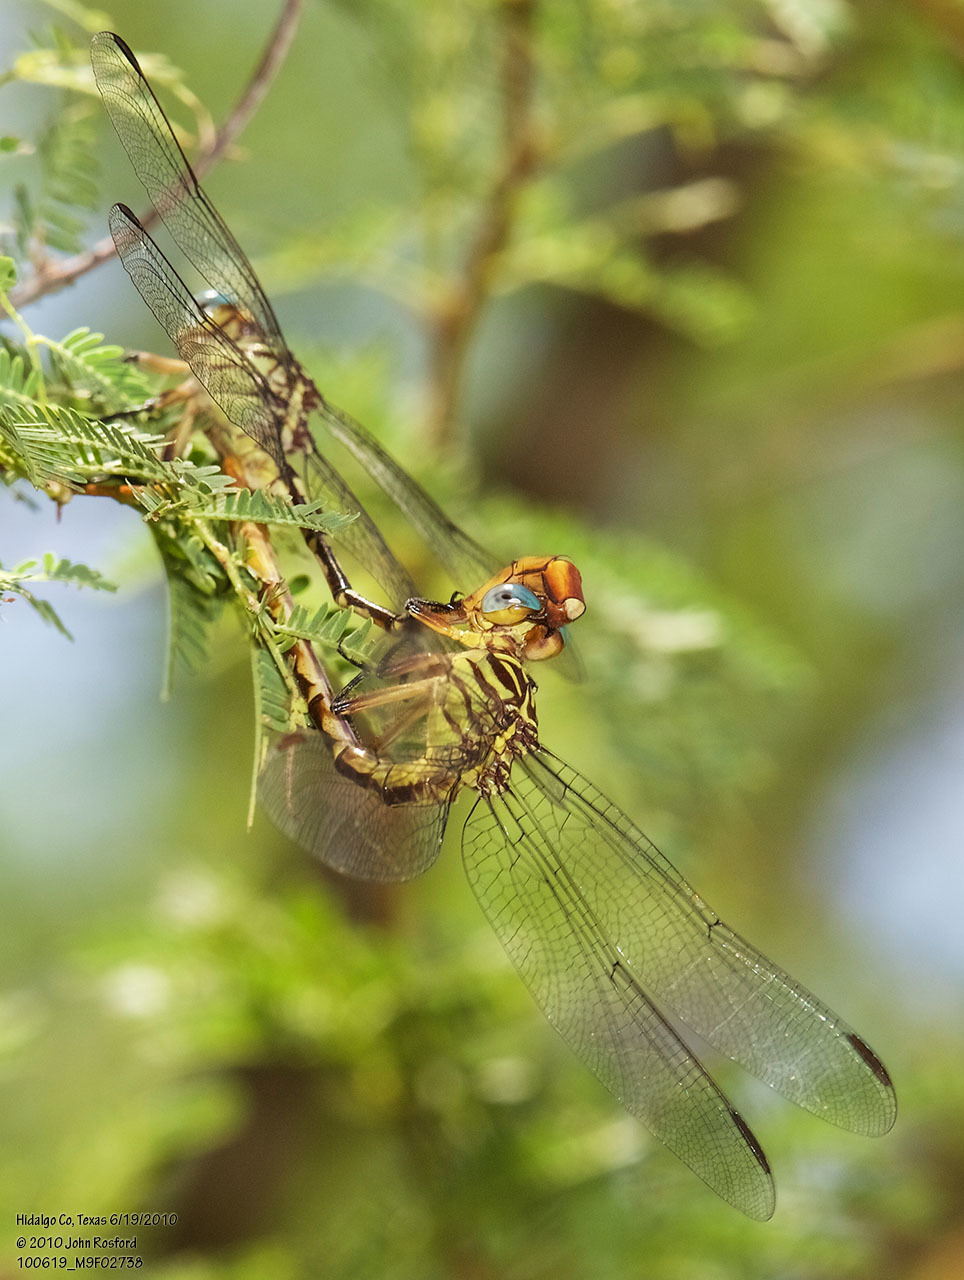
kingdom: Animalia
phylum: Arthropoda
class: Insecta
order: Odonata
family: Gomphidae
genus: Stylurus
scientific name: Stylurus plagiatus
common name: Russet-tipped clubtail
